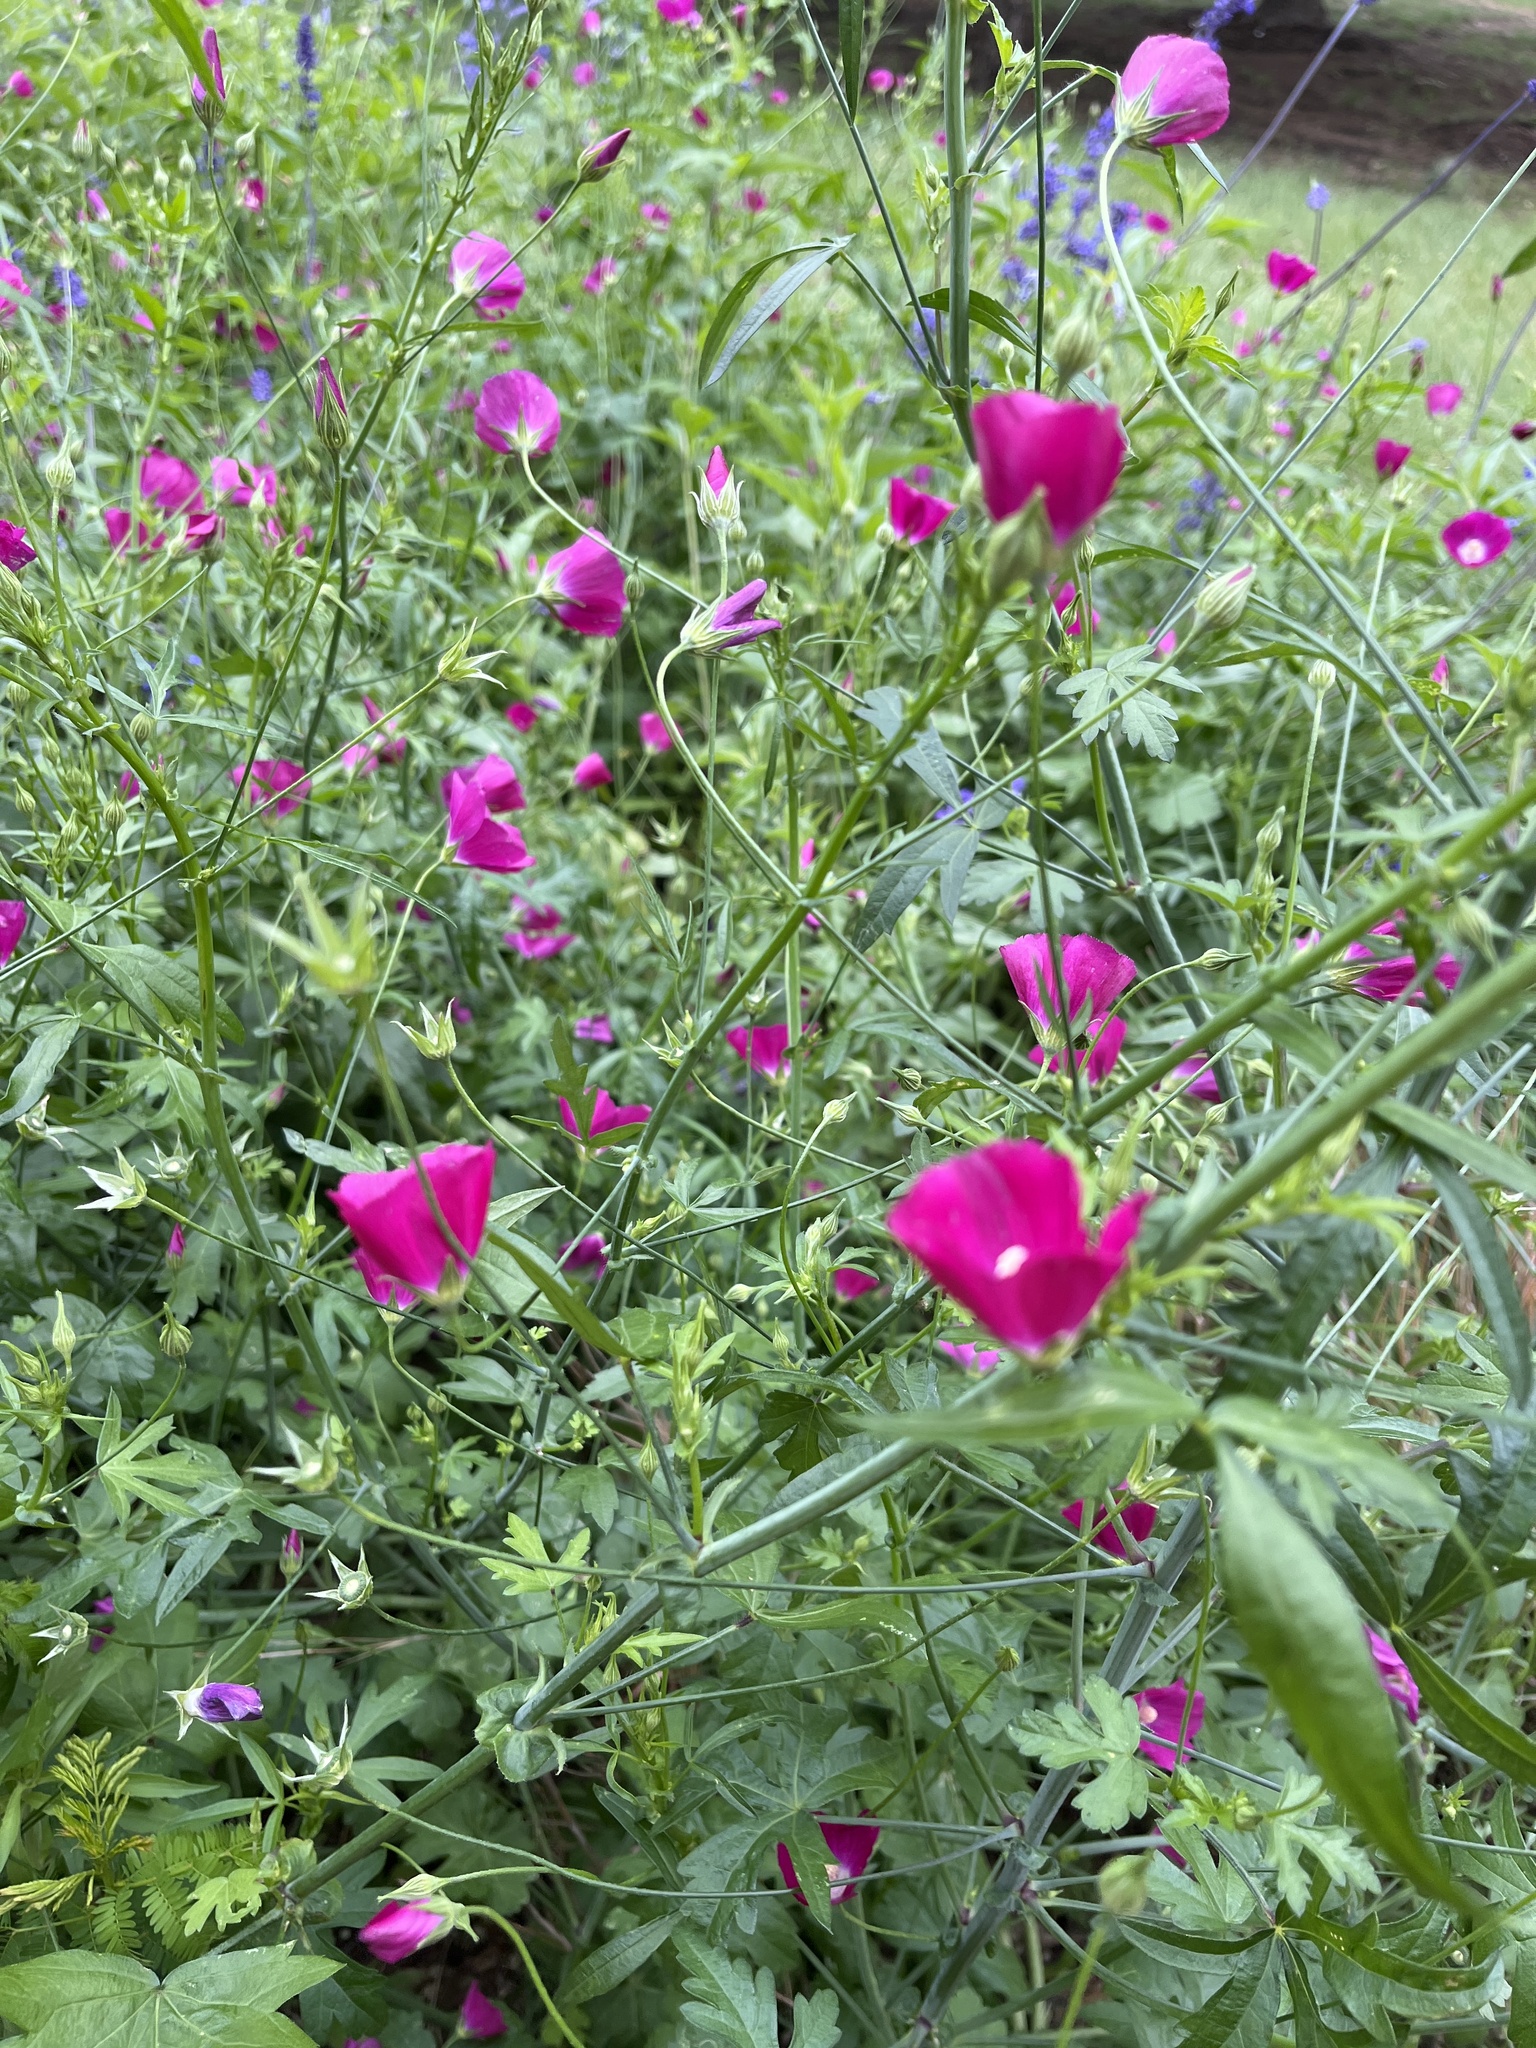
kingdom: Plantae
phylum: Tracheophyta
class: Magnoliopsida
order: Malvales
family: Malvaceae
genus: Callirhoe
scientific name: Callirhoe leiocarpa
